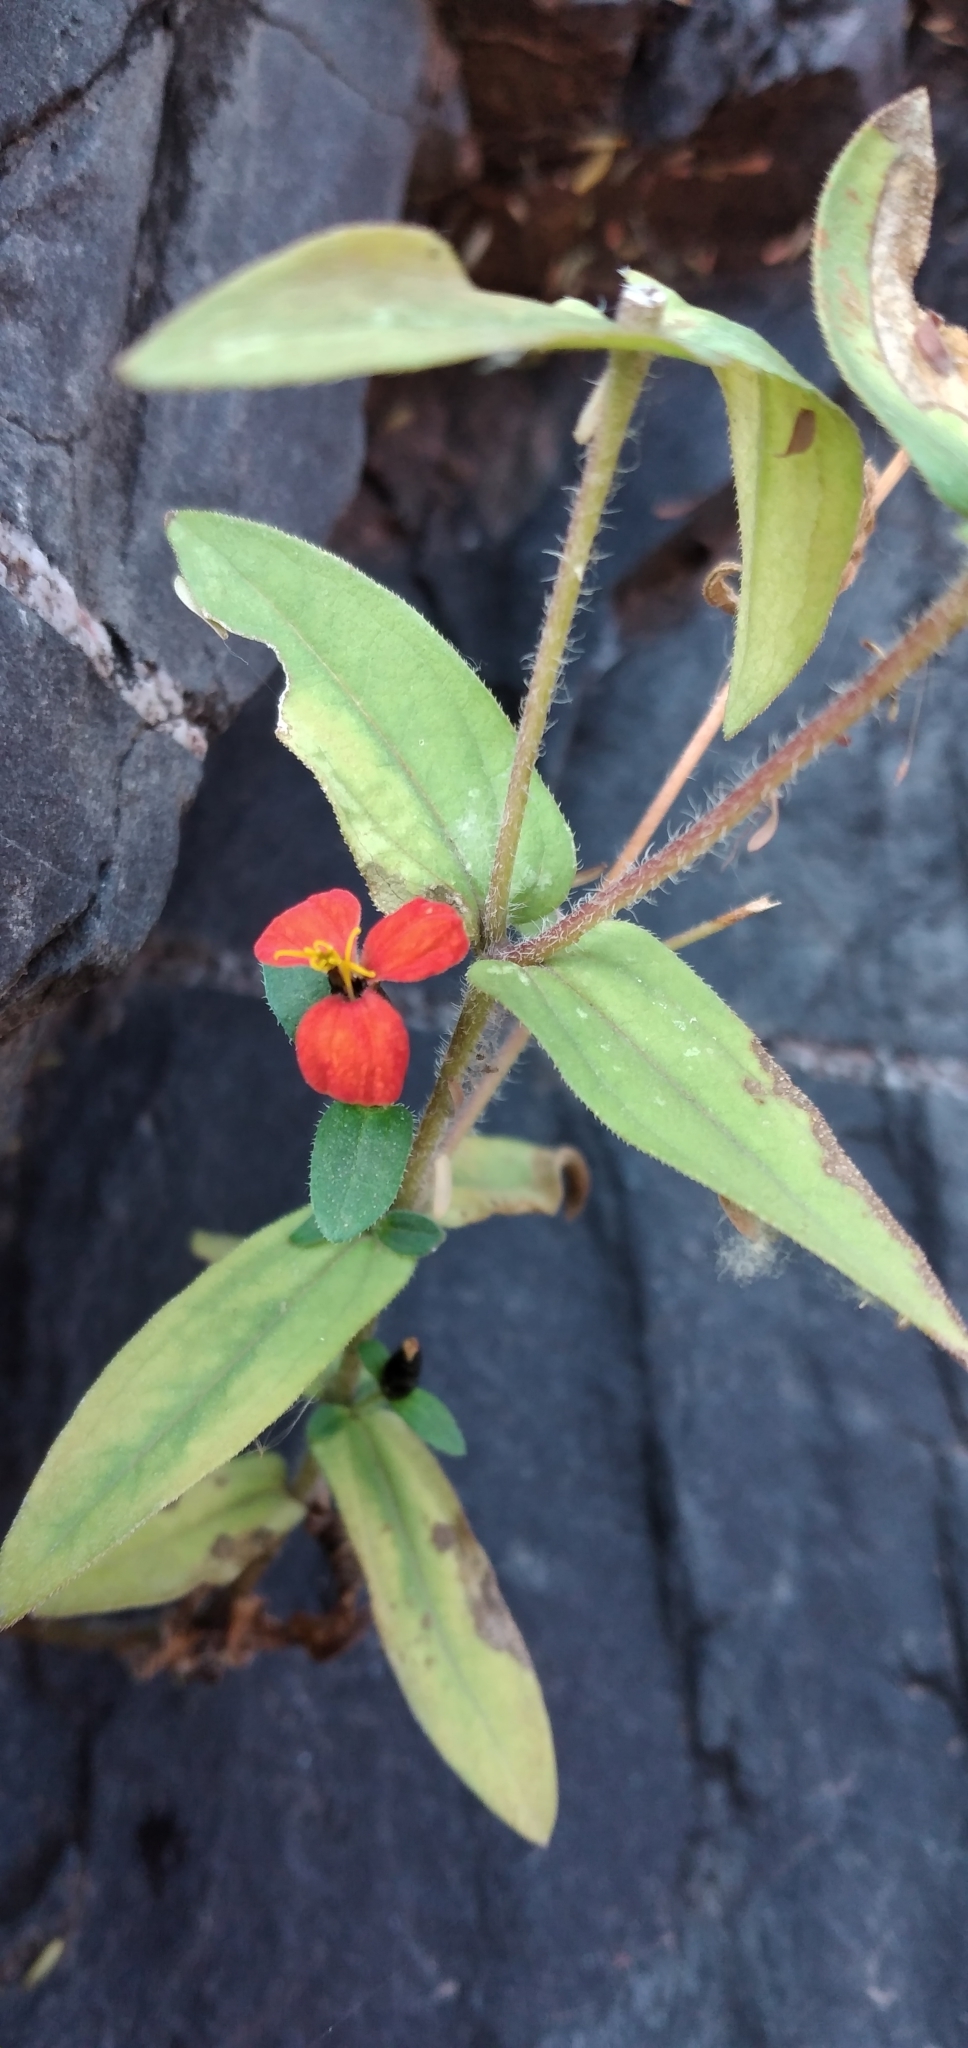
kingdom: Plantae
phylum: Tracheophyta
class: Magnoliopsida
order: Asterales
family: Asteraceae
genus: Zinnia
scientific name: Zinnia peruviana
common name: Peruvian zinnia
